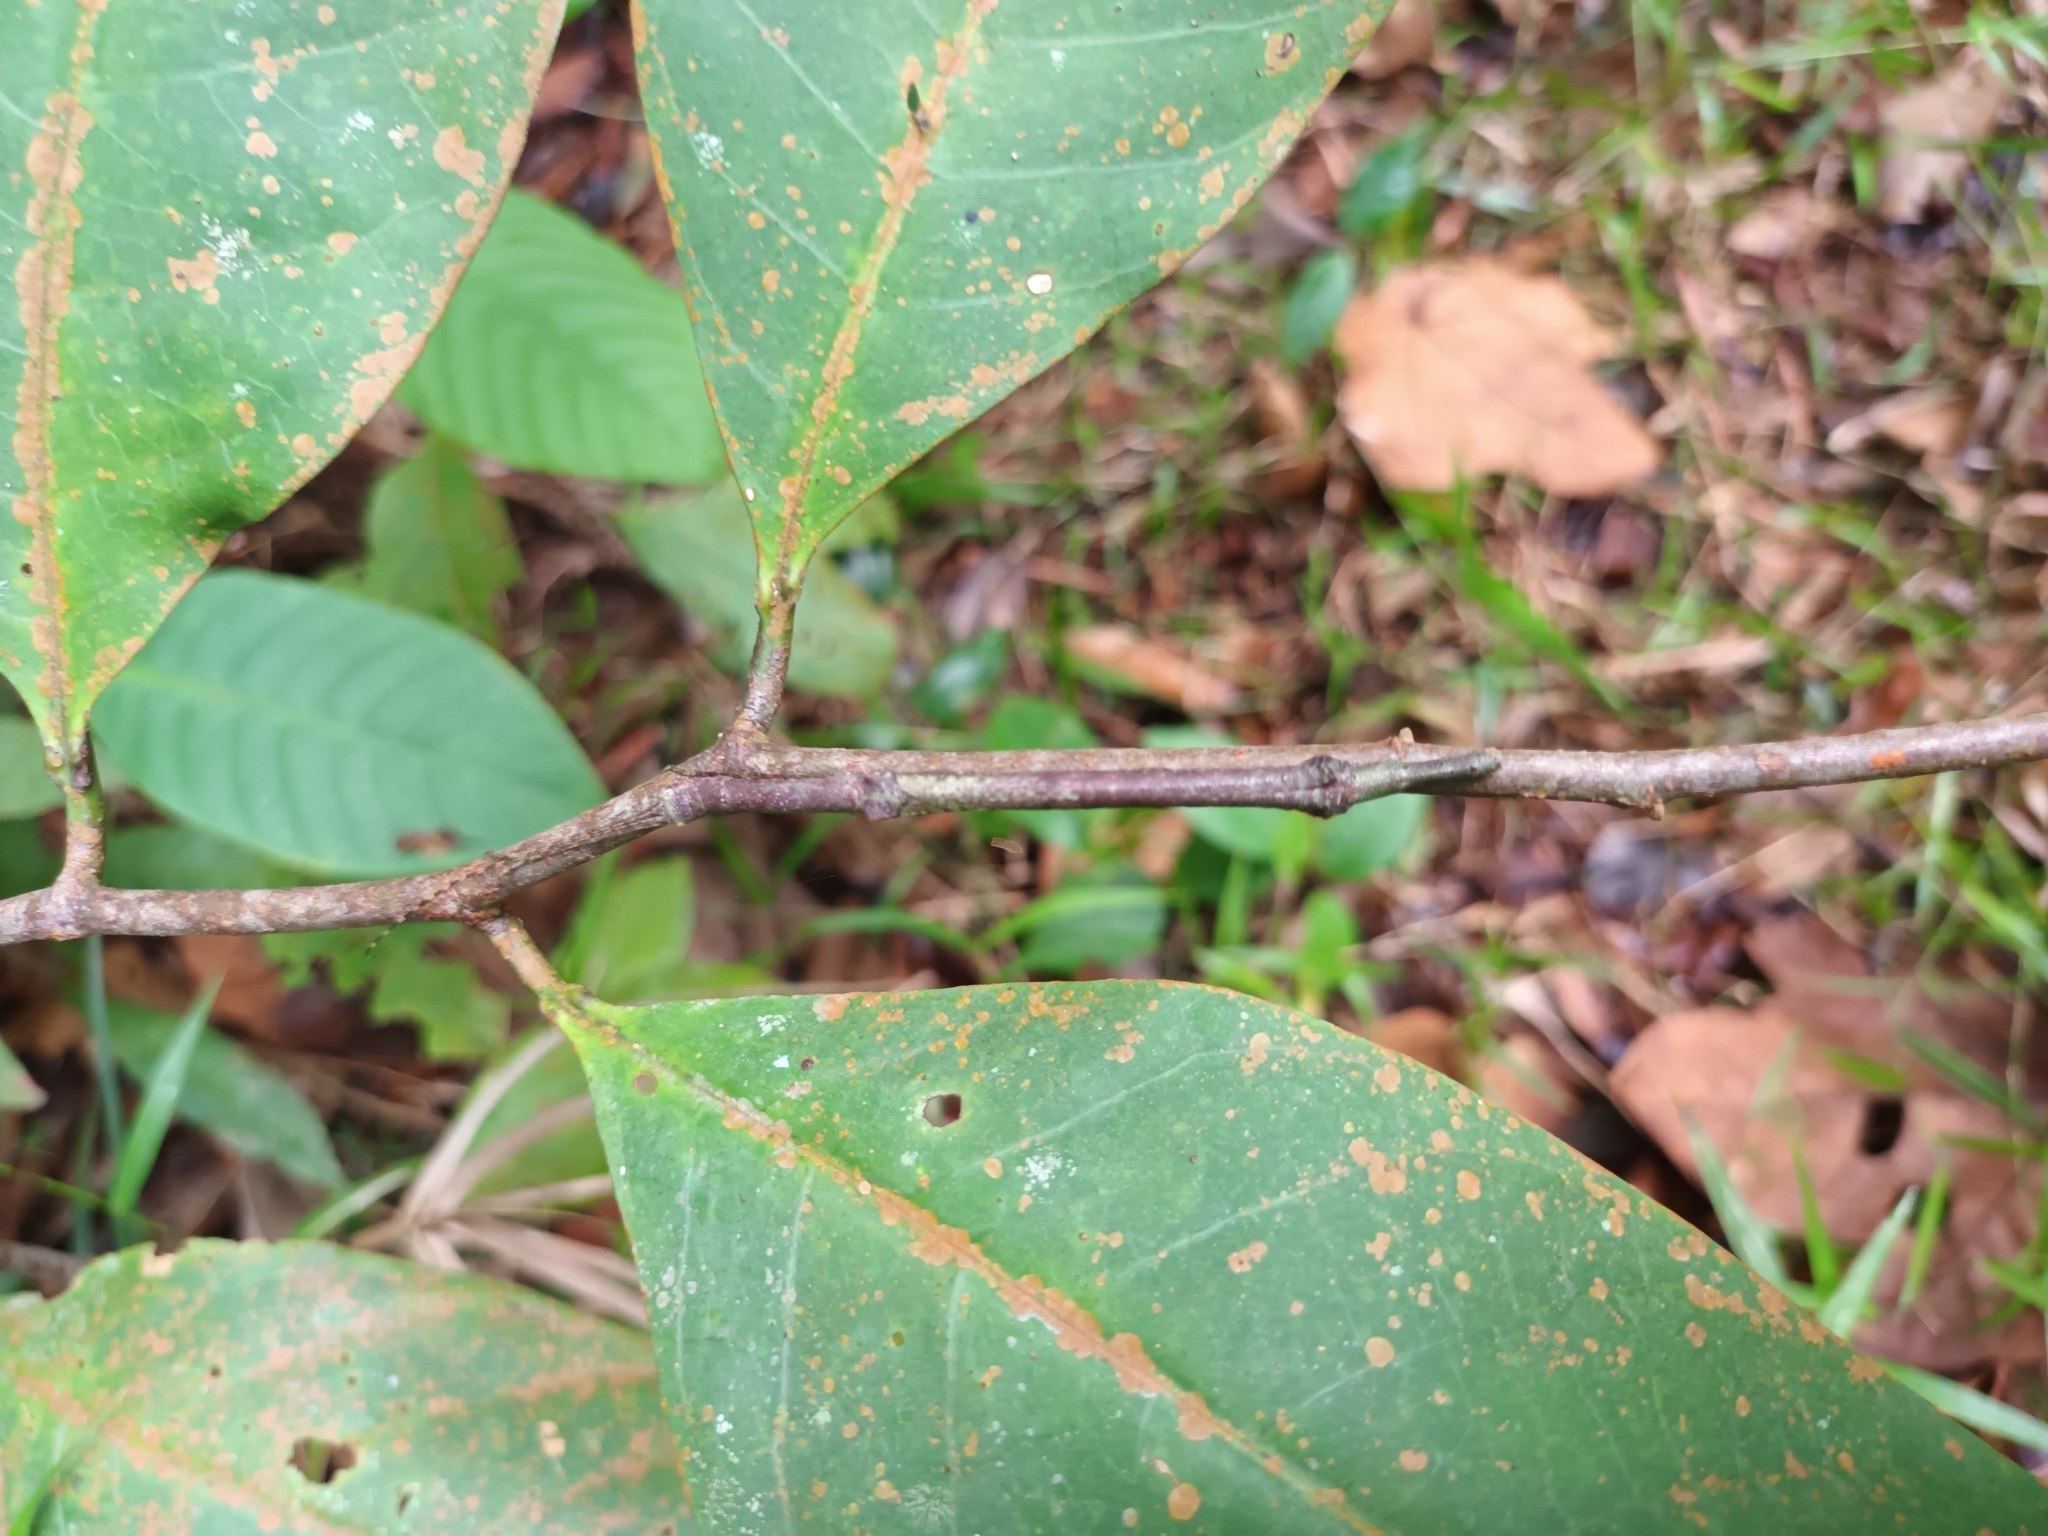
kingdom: Animalia
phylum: Arthropoda
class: Insecta
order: Phasmida
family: Lonchodidae
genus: Planososibia
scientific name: Planososibia esacus
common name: Banded sosibia
